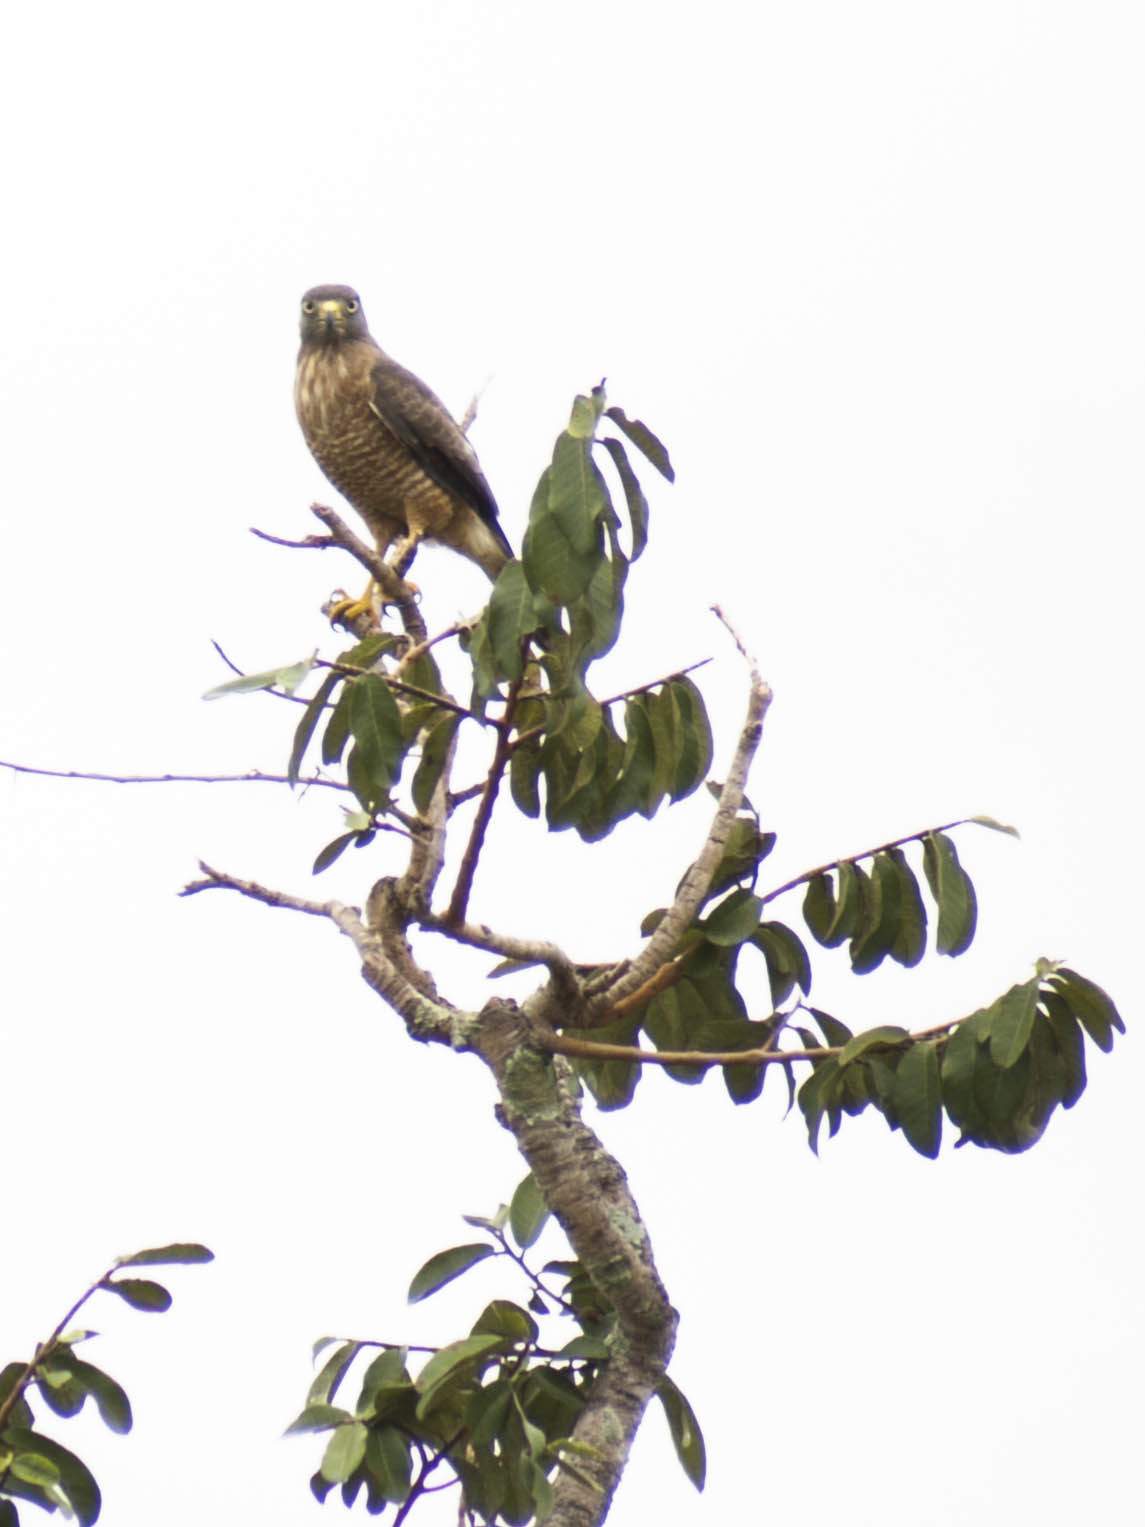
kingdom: Animalia
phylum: Chordata
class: Aves
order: Accipitriformes
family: Accipitridae
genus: Rupornis
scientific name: Rupornis magnirostris
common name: Roadside hawk
